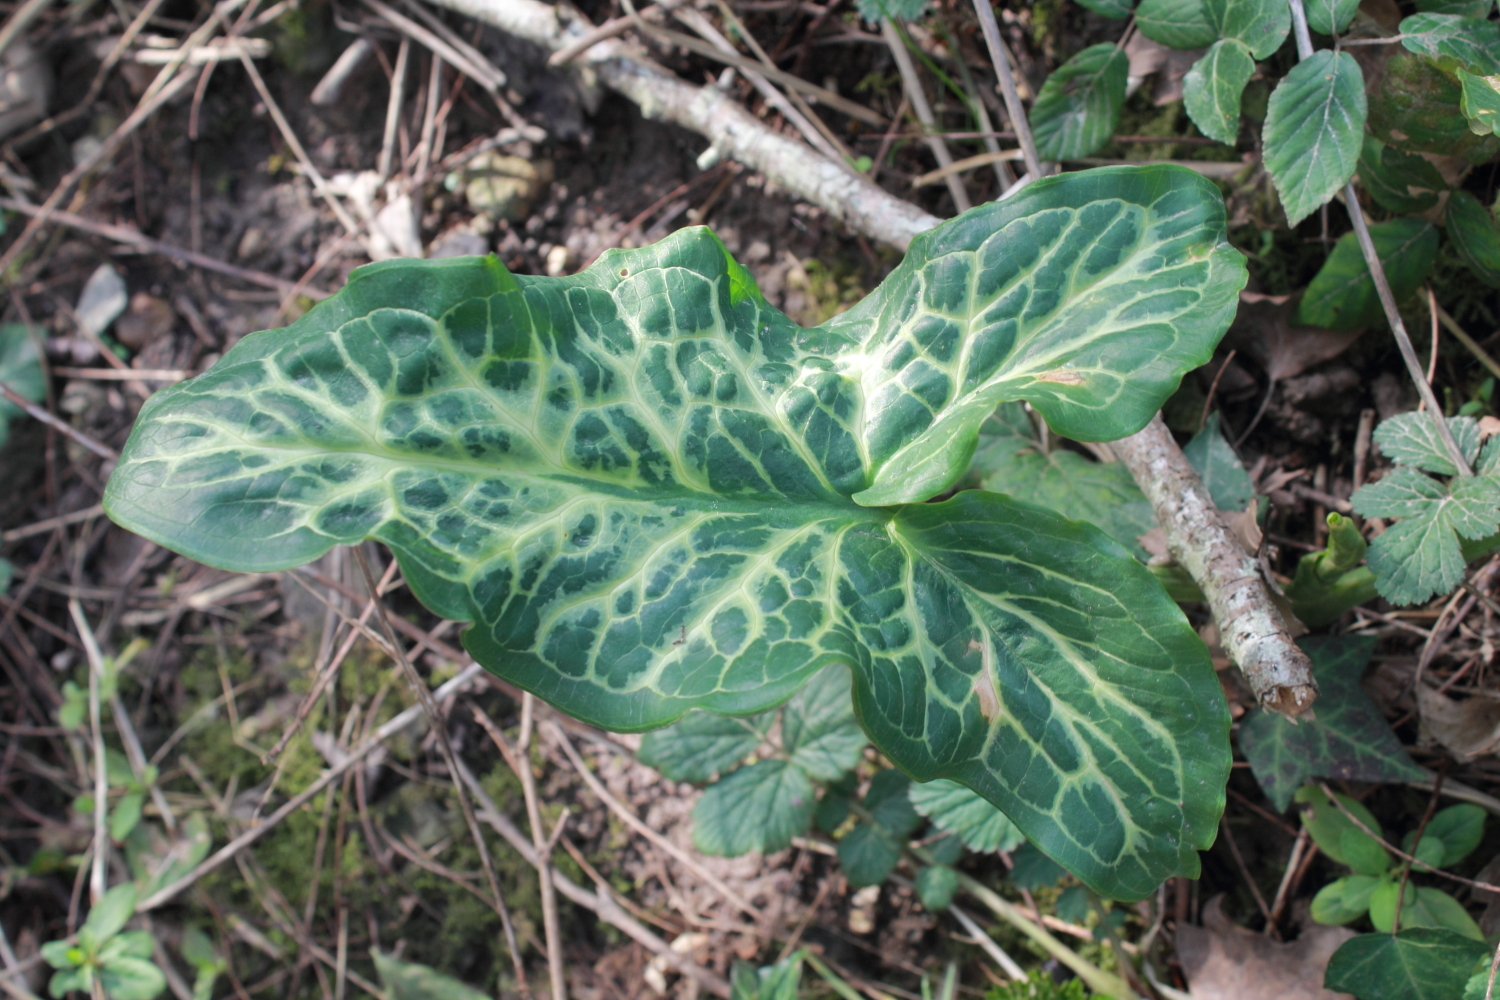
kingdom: Plantae
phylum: Tracheophyta
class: Liliopsida
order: Alismatales
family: Araceae
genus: Arum
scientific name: Arum italicum
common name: Italian lords-and-ladies
